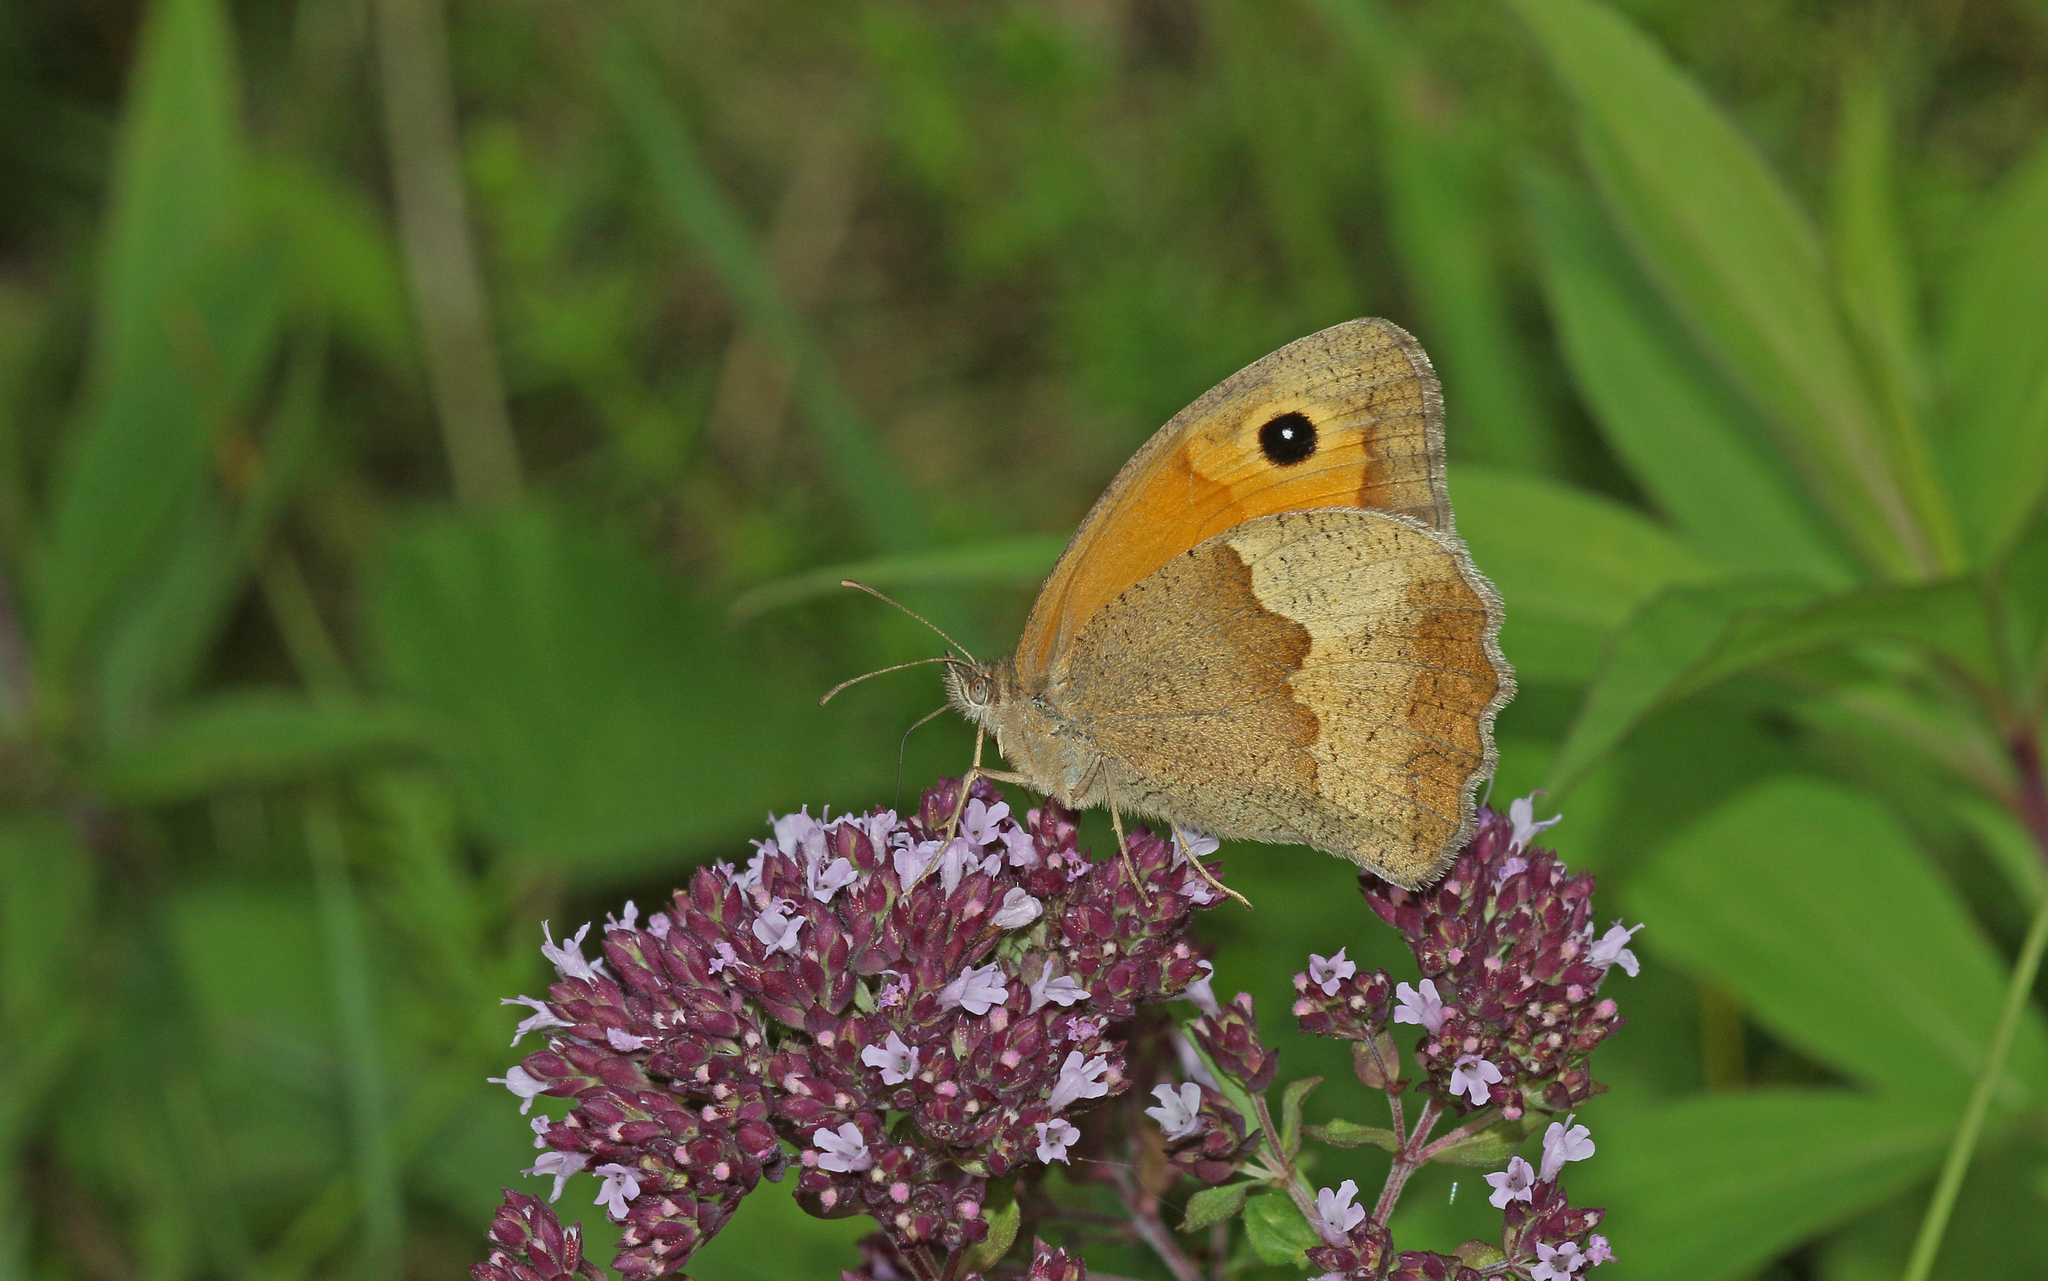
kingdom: Animalia
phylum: Arthropoda
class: Insecta
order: Lepidoptera
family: Nymphalidae
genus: Maniola
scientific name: Maniola jurtina
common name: Meadow brown
